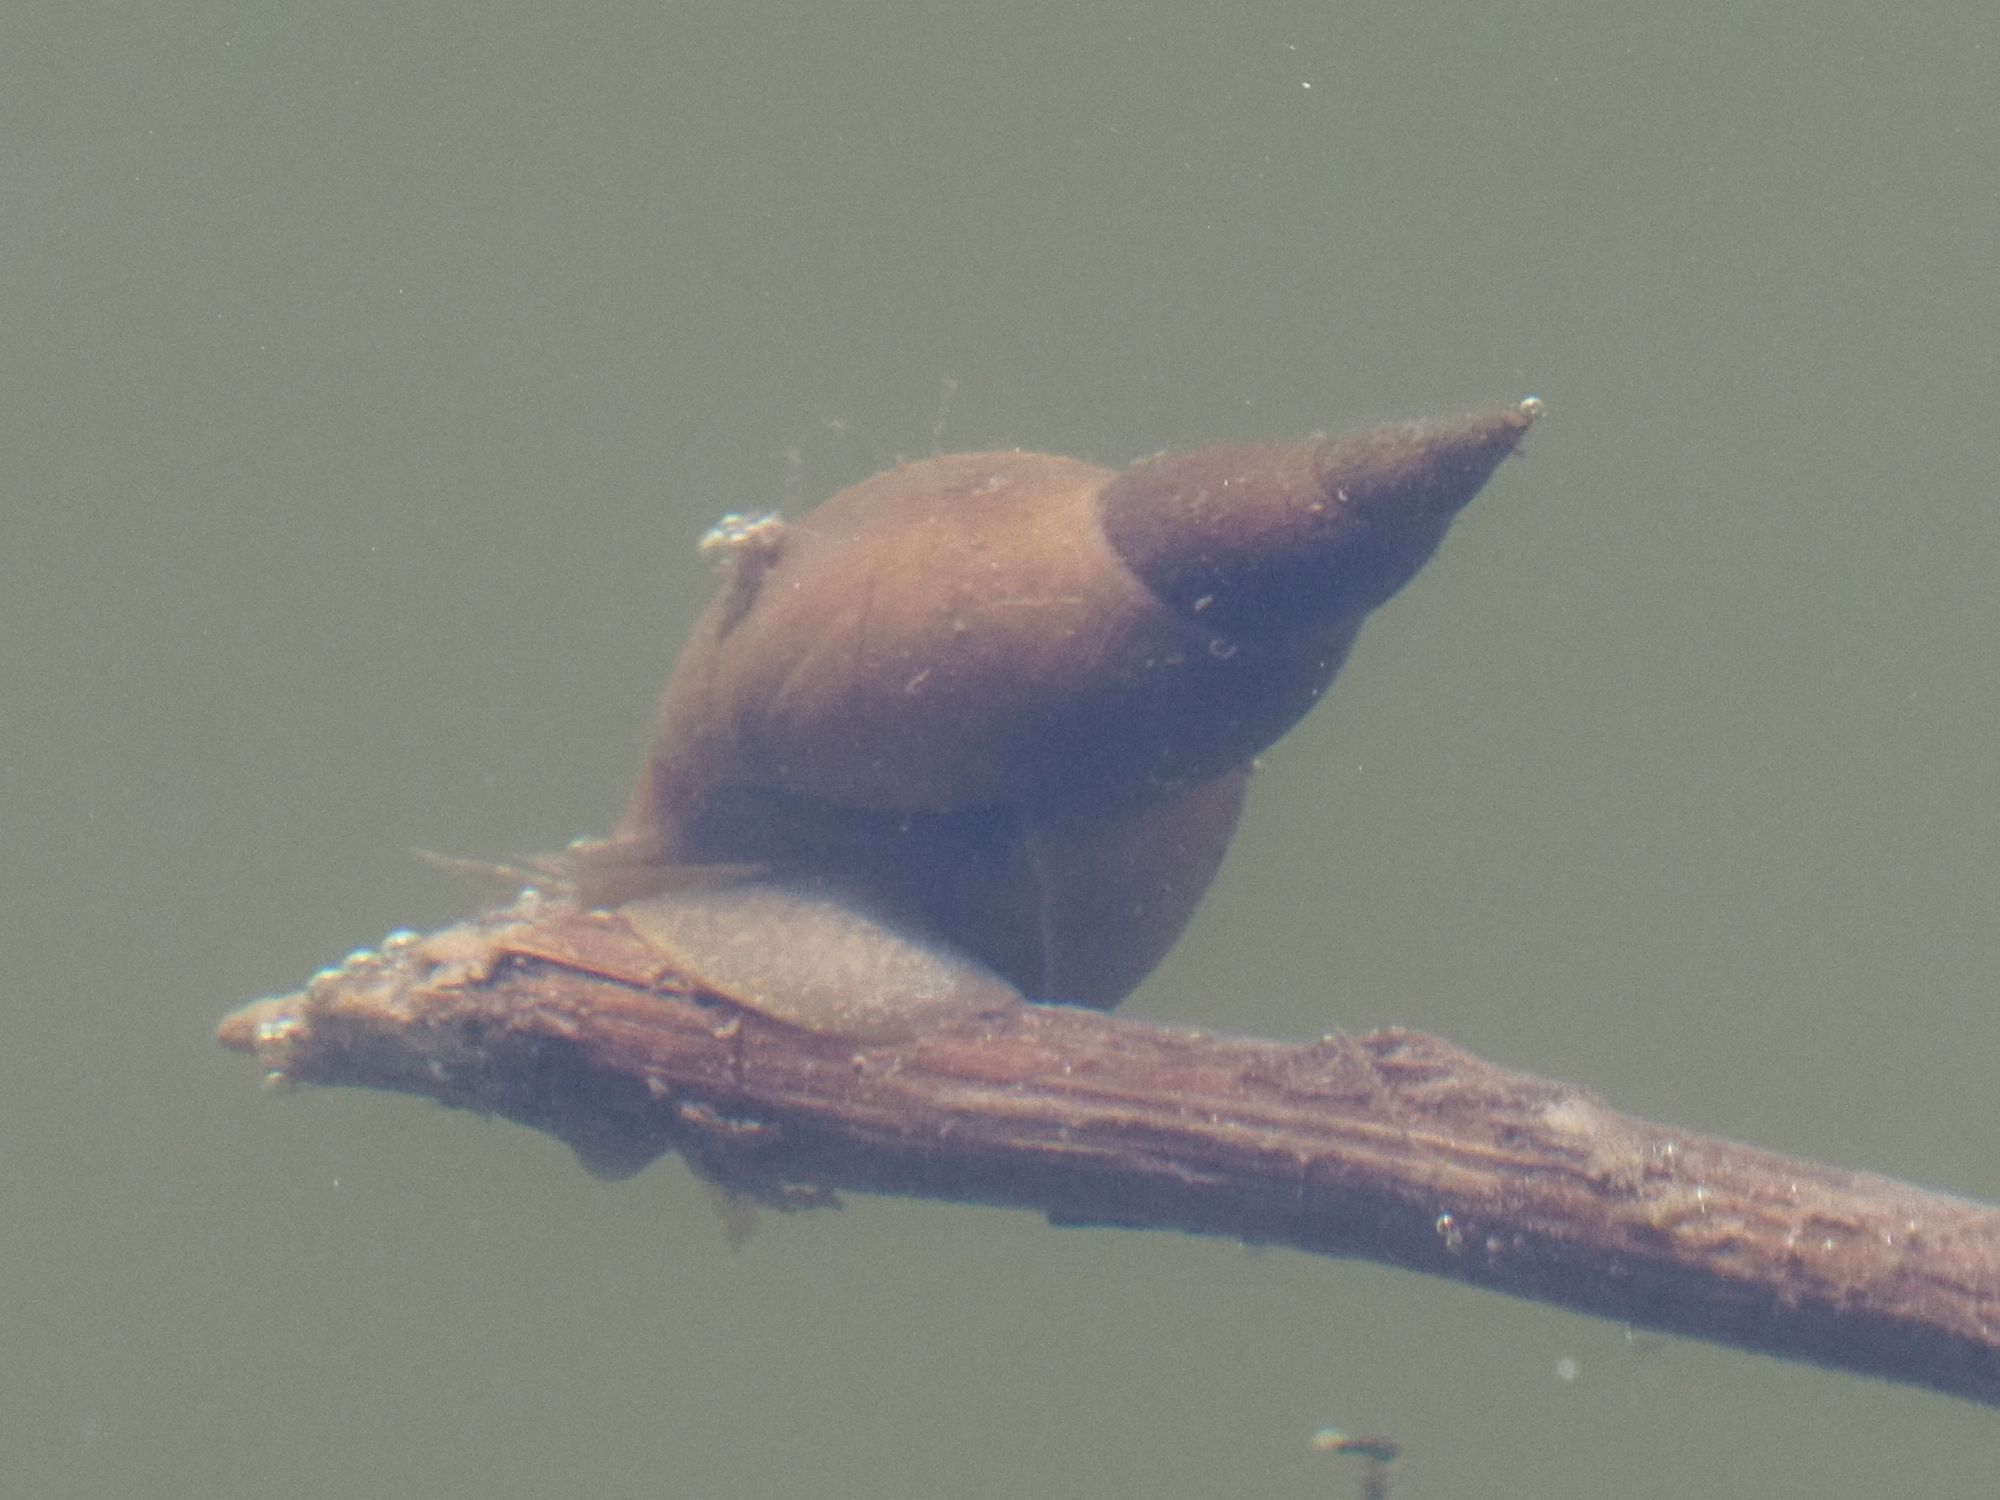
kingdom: Animalia
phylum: Mollusca
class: Gastropoda
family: Lymnaeidae
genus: Lymnaea
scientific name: Lymnaea stagnalis
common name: Great pond snail
